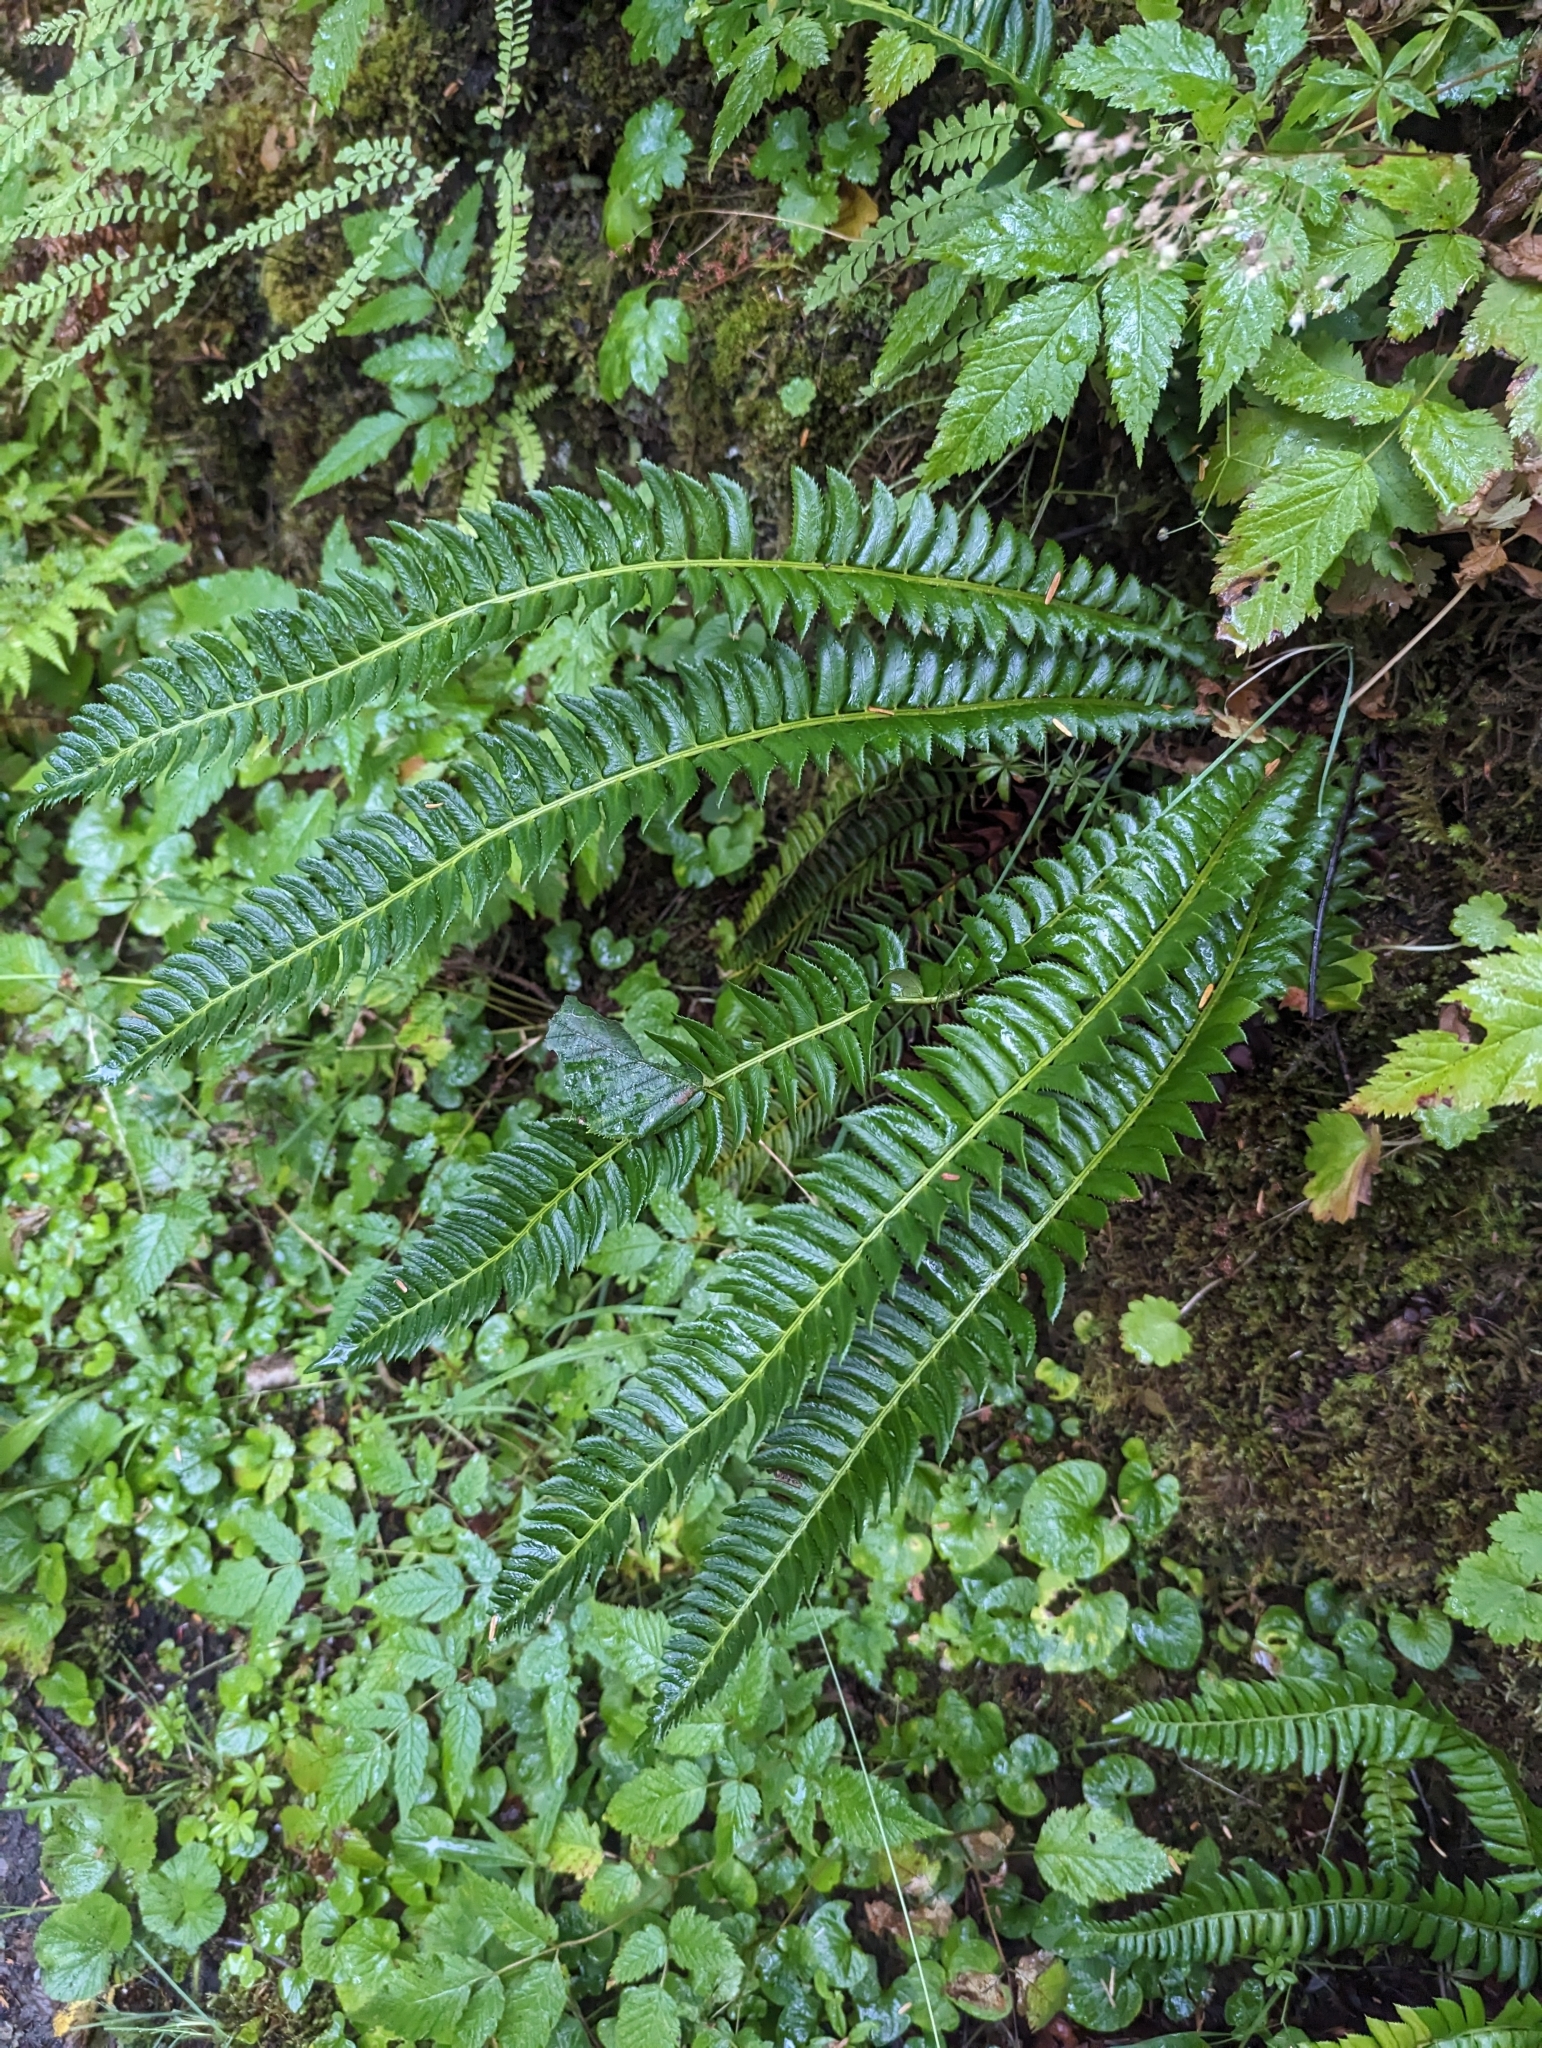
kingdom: Plantae
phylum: Tracheophyta
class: Polypodiopsida
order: Polypodiales
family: Dryopteridaceae
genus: Polystichum
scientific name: Polystichum lonchitis
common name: Holly fern
